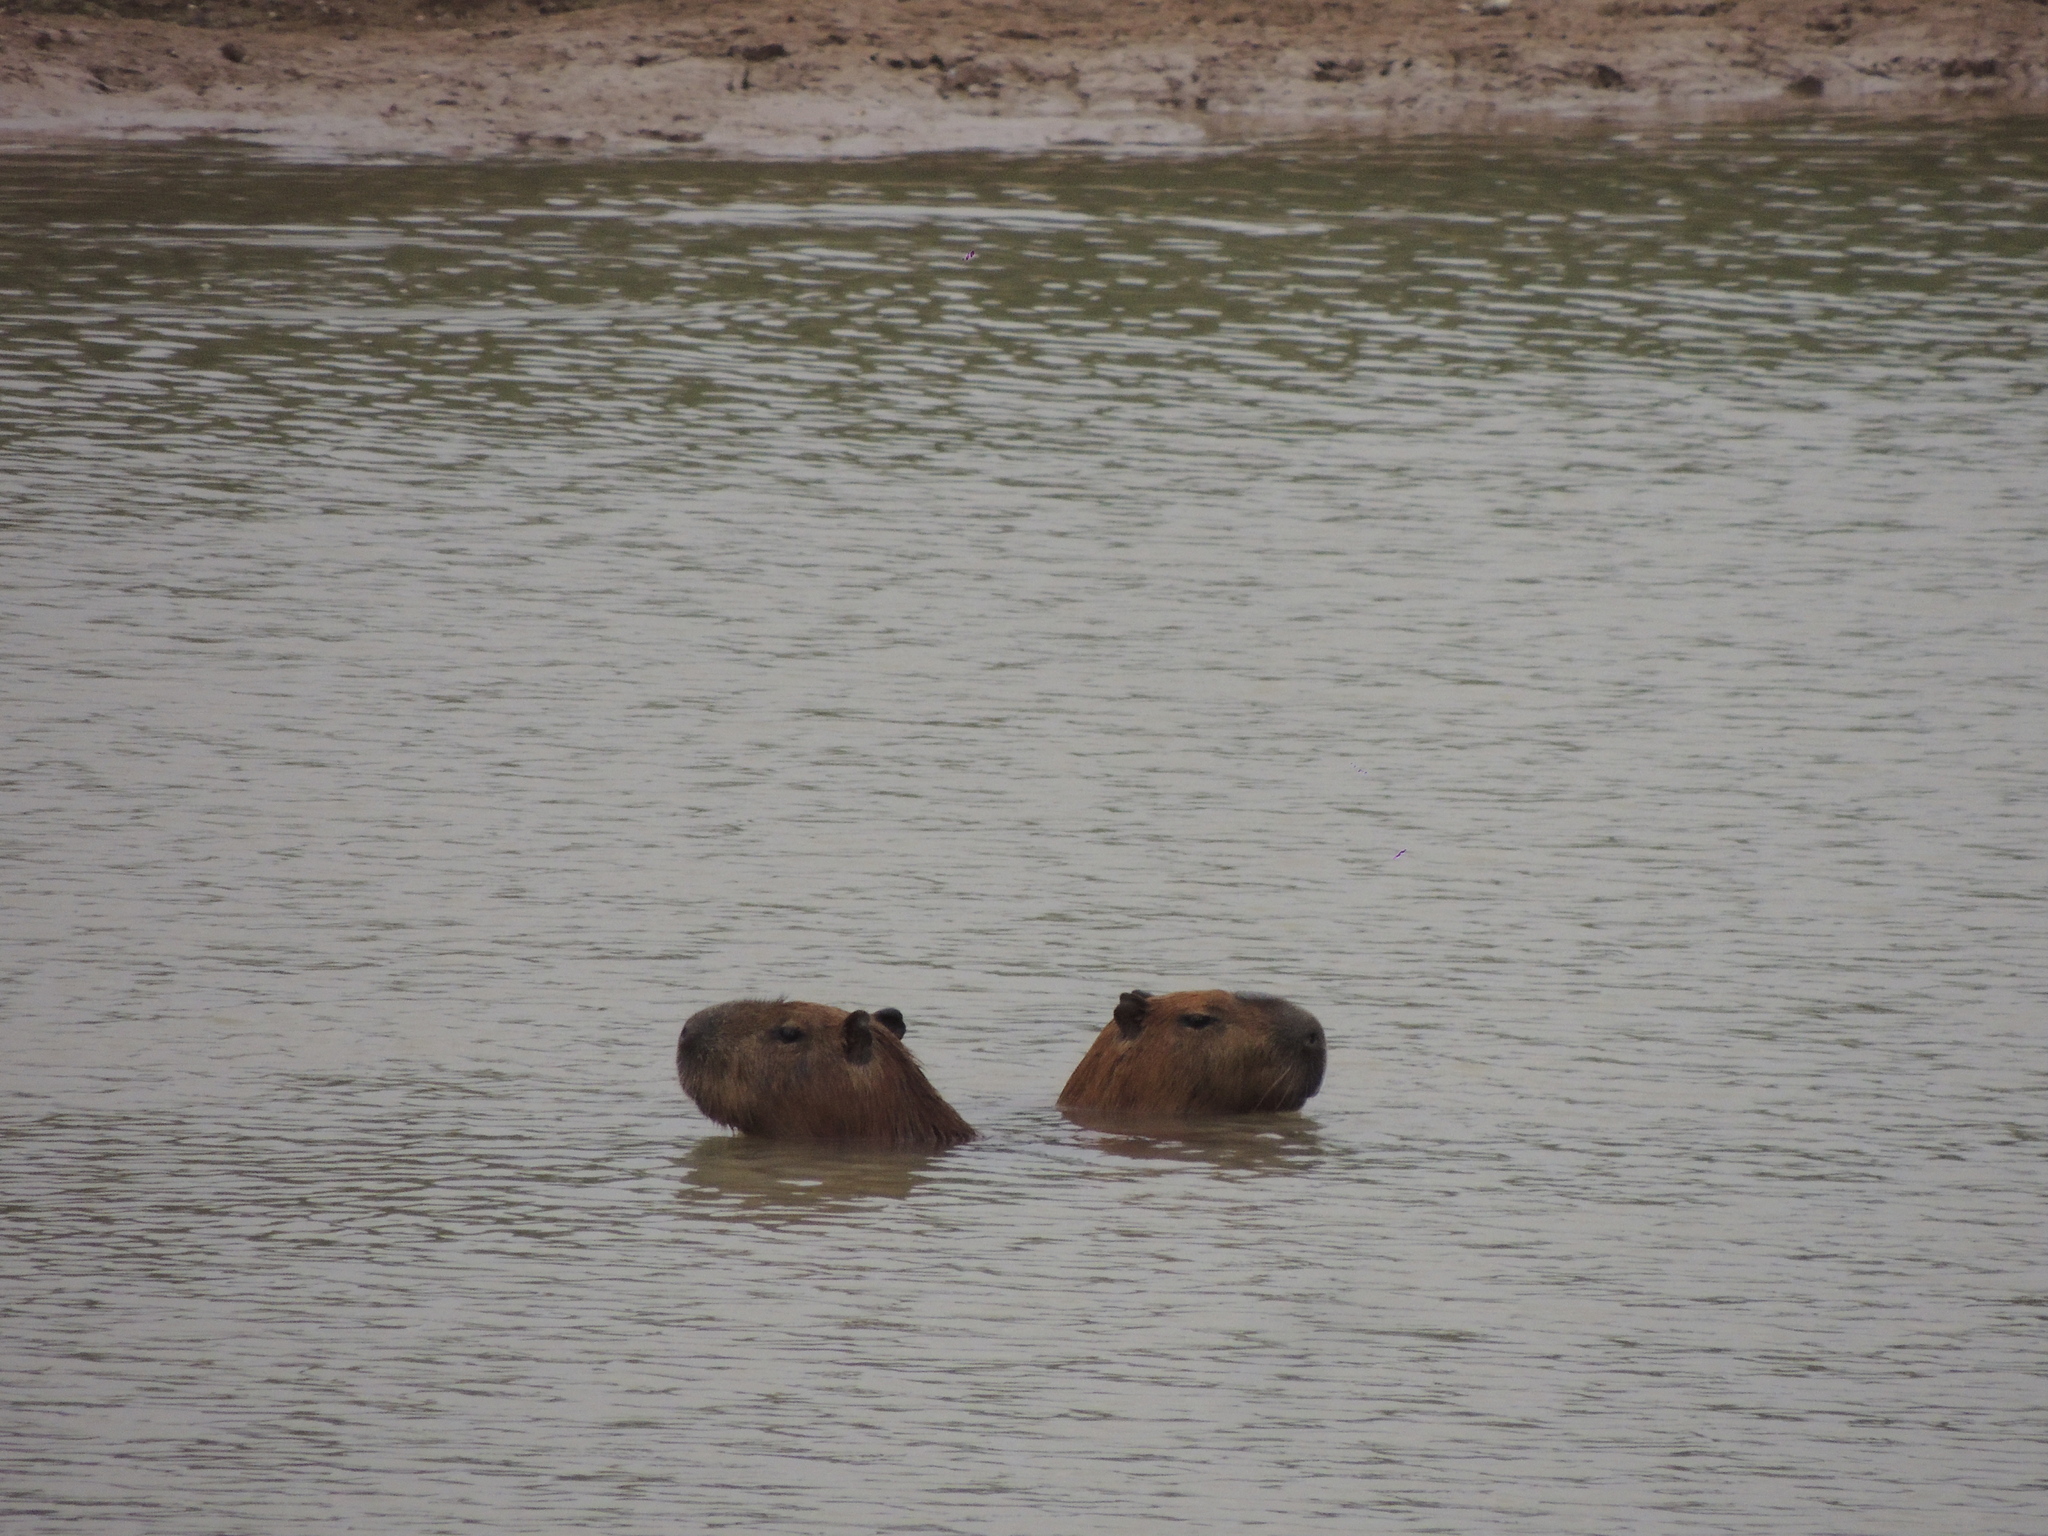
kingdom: Animalia
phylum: Chordata
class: Mammalia
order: Rodentia
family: Caviidae
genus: Hydrochoerus
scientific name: Hydrochoerus hydrochaeris
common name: Capybara
